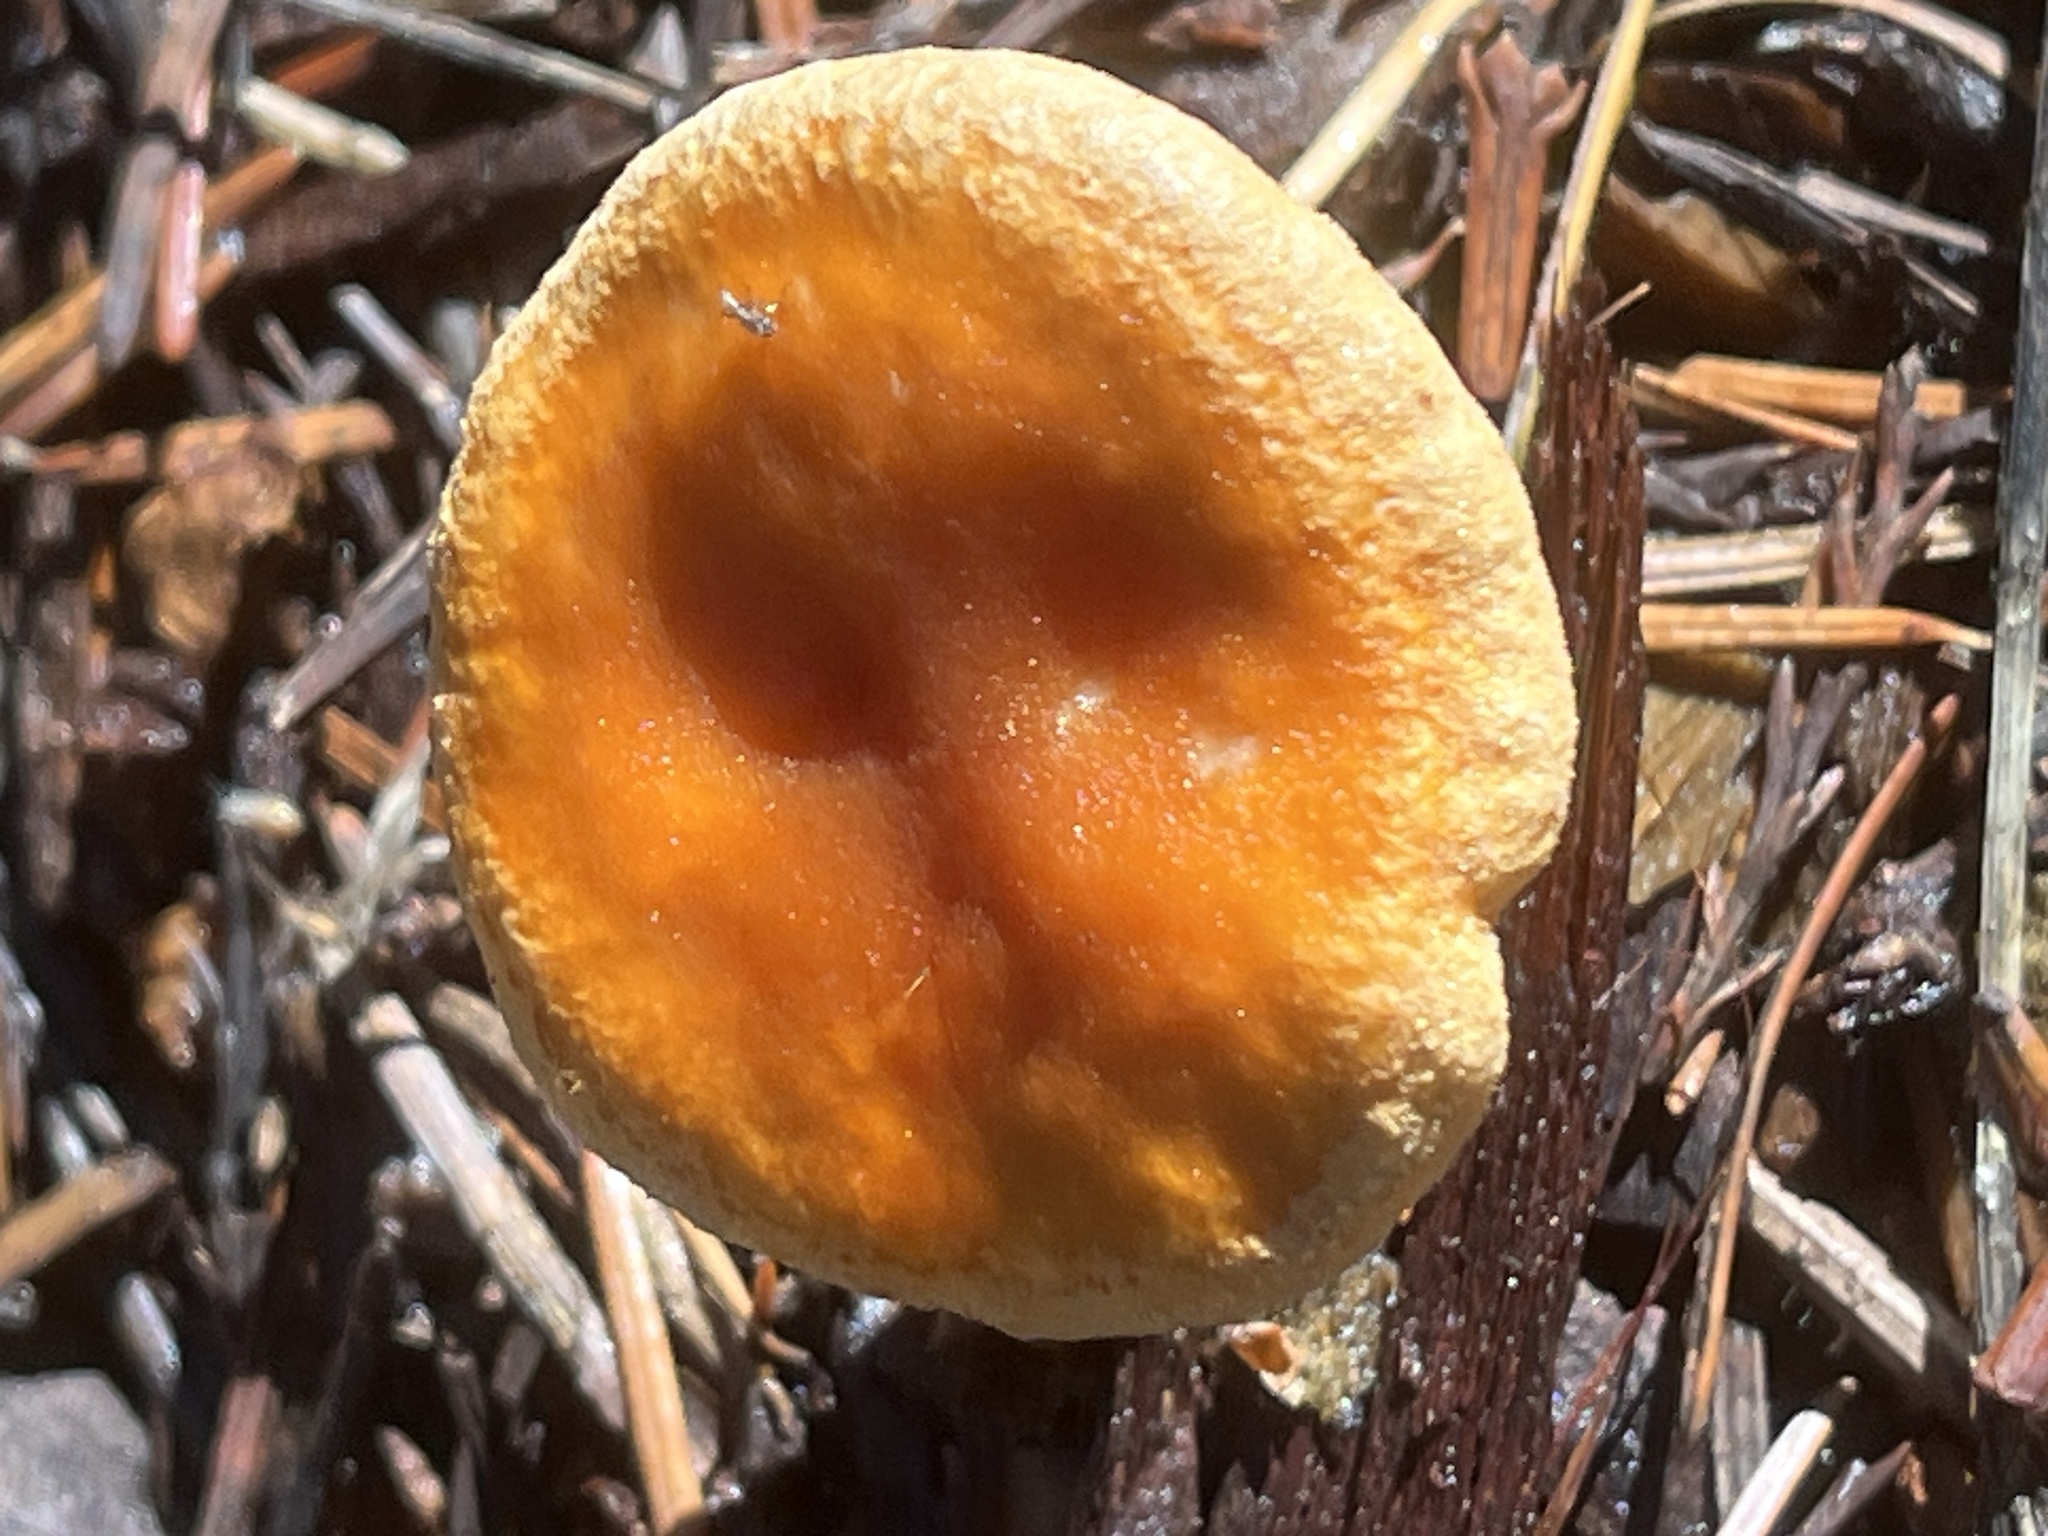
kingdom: Fungi
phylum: Basidiomycota
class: Agaricomycetes
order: Boletales
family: Hygrophoropsidaceae
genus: Hygrophoropsis
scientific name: Hygrophoropsis aurantiaca
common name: False chanterelle
